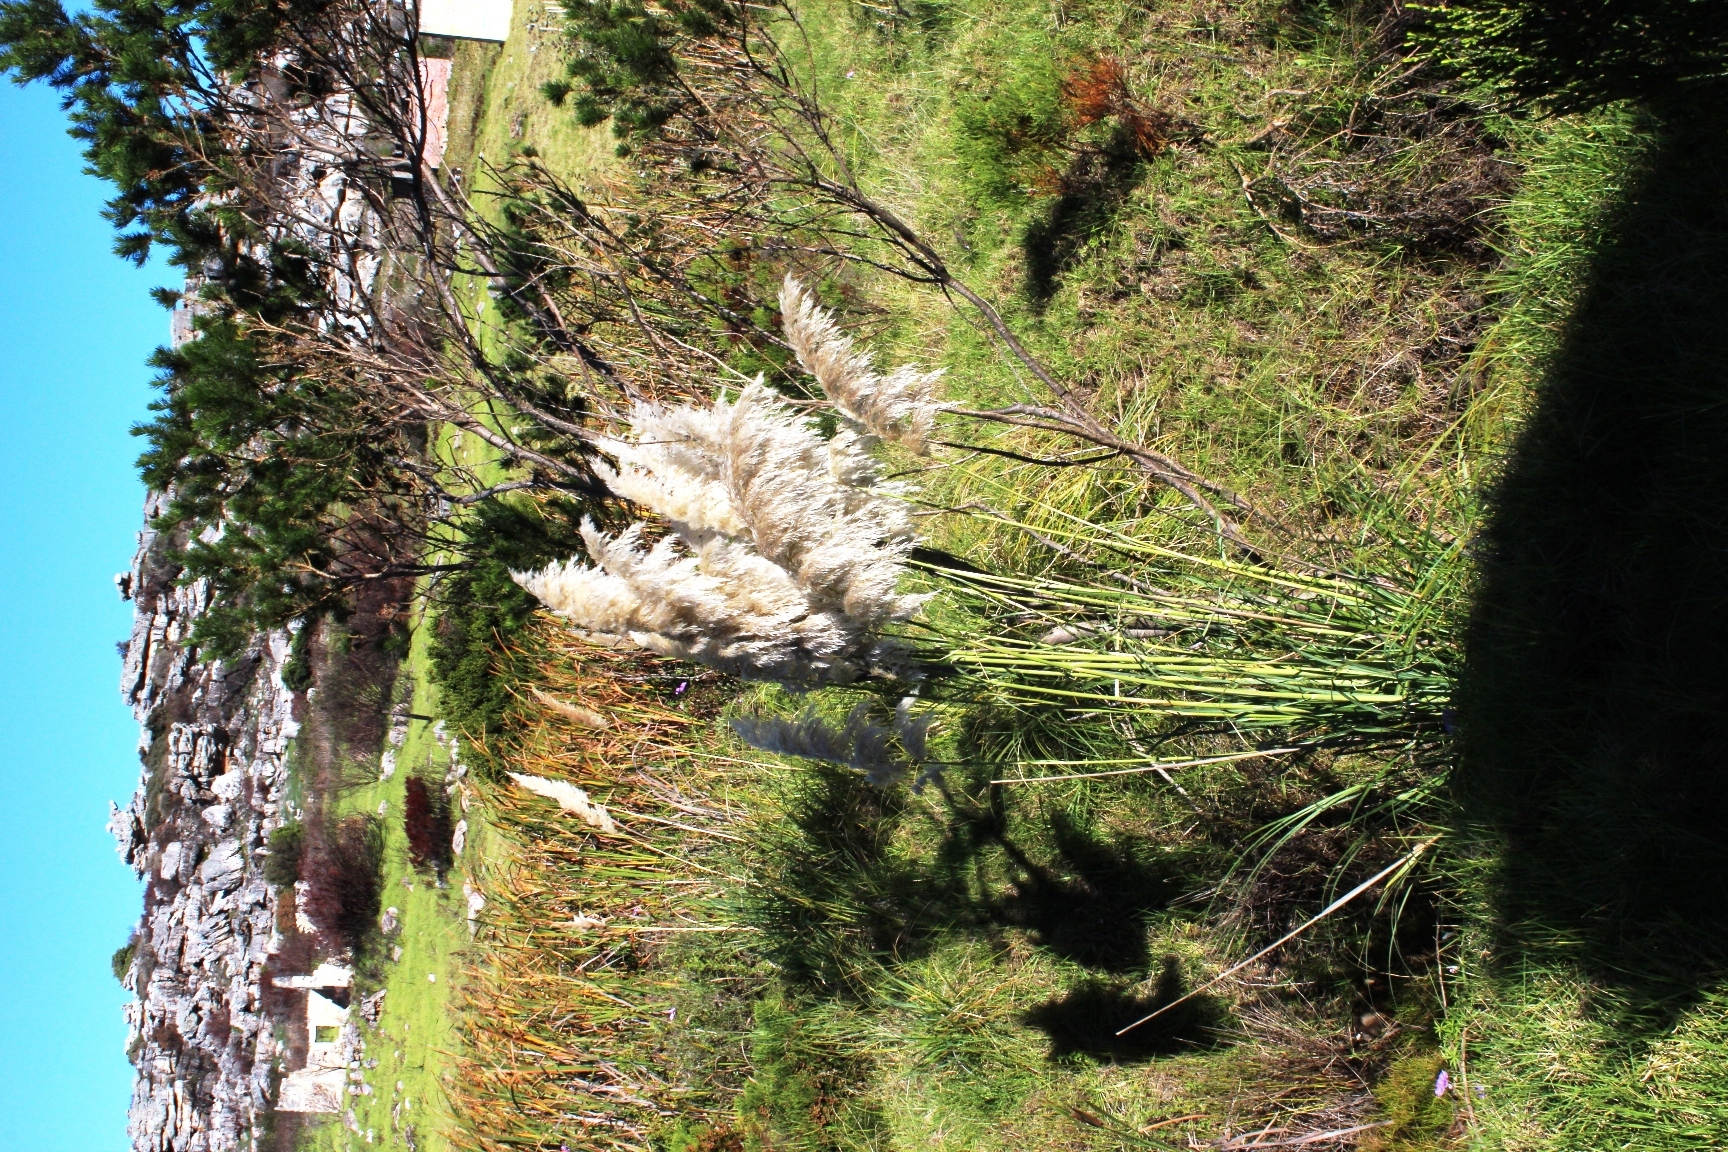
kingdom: Plantae
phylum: Tracheophyta
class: Liliopsida
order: Poales
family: Poaceae
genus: Cortaderia
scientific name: Cortaderia selloana
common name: Uruguayan pampas grass
